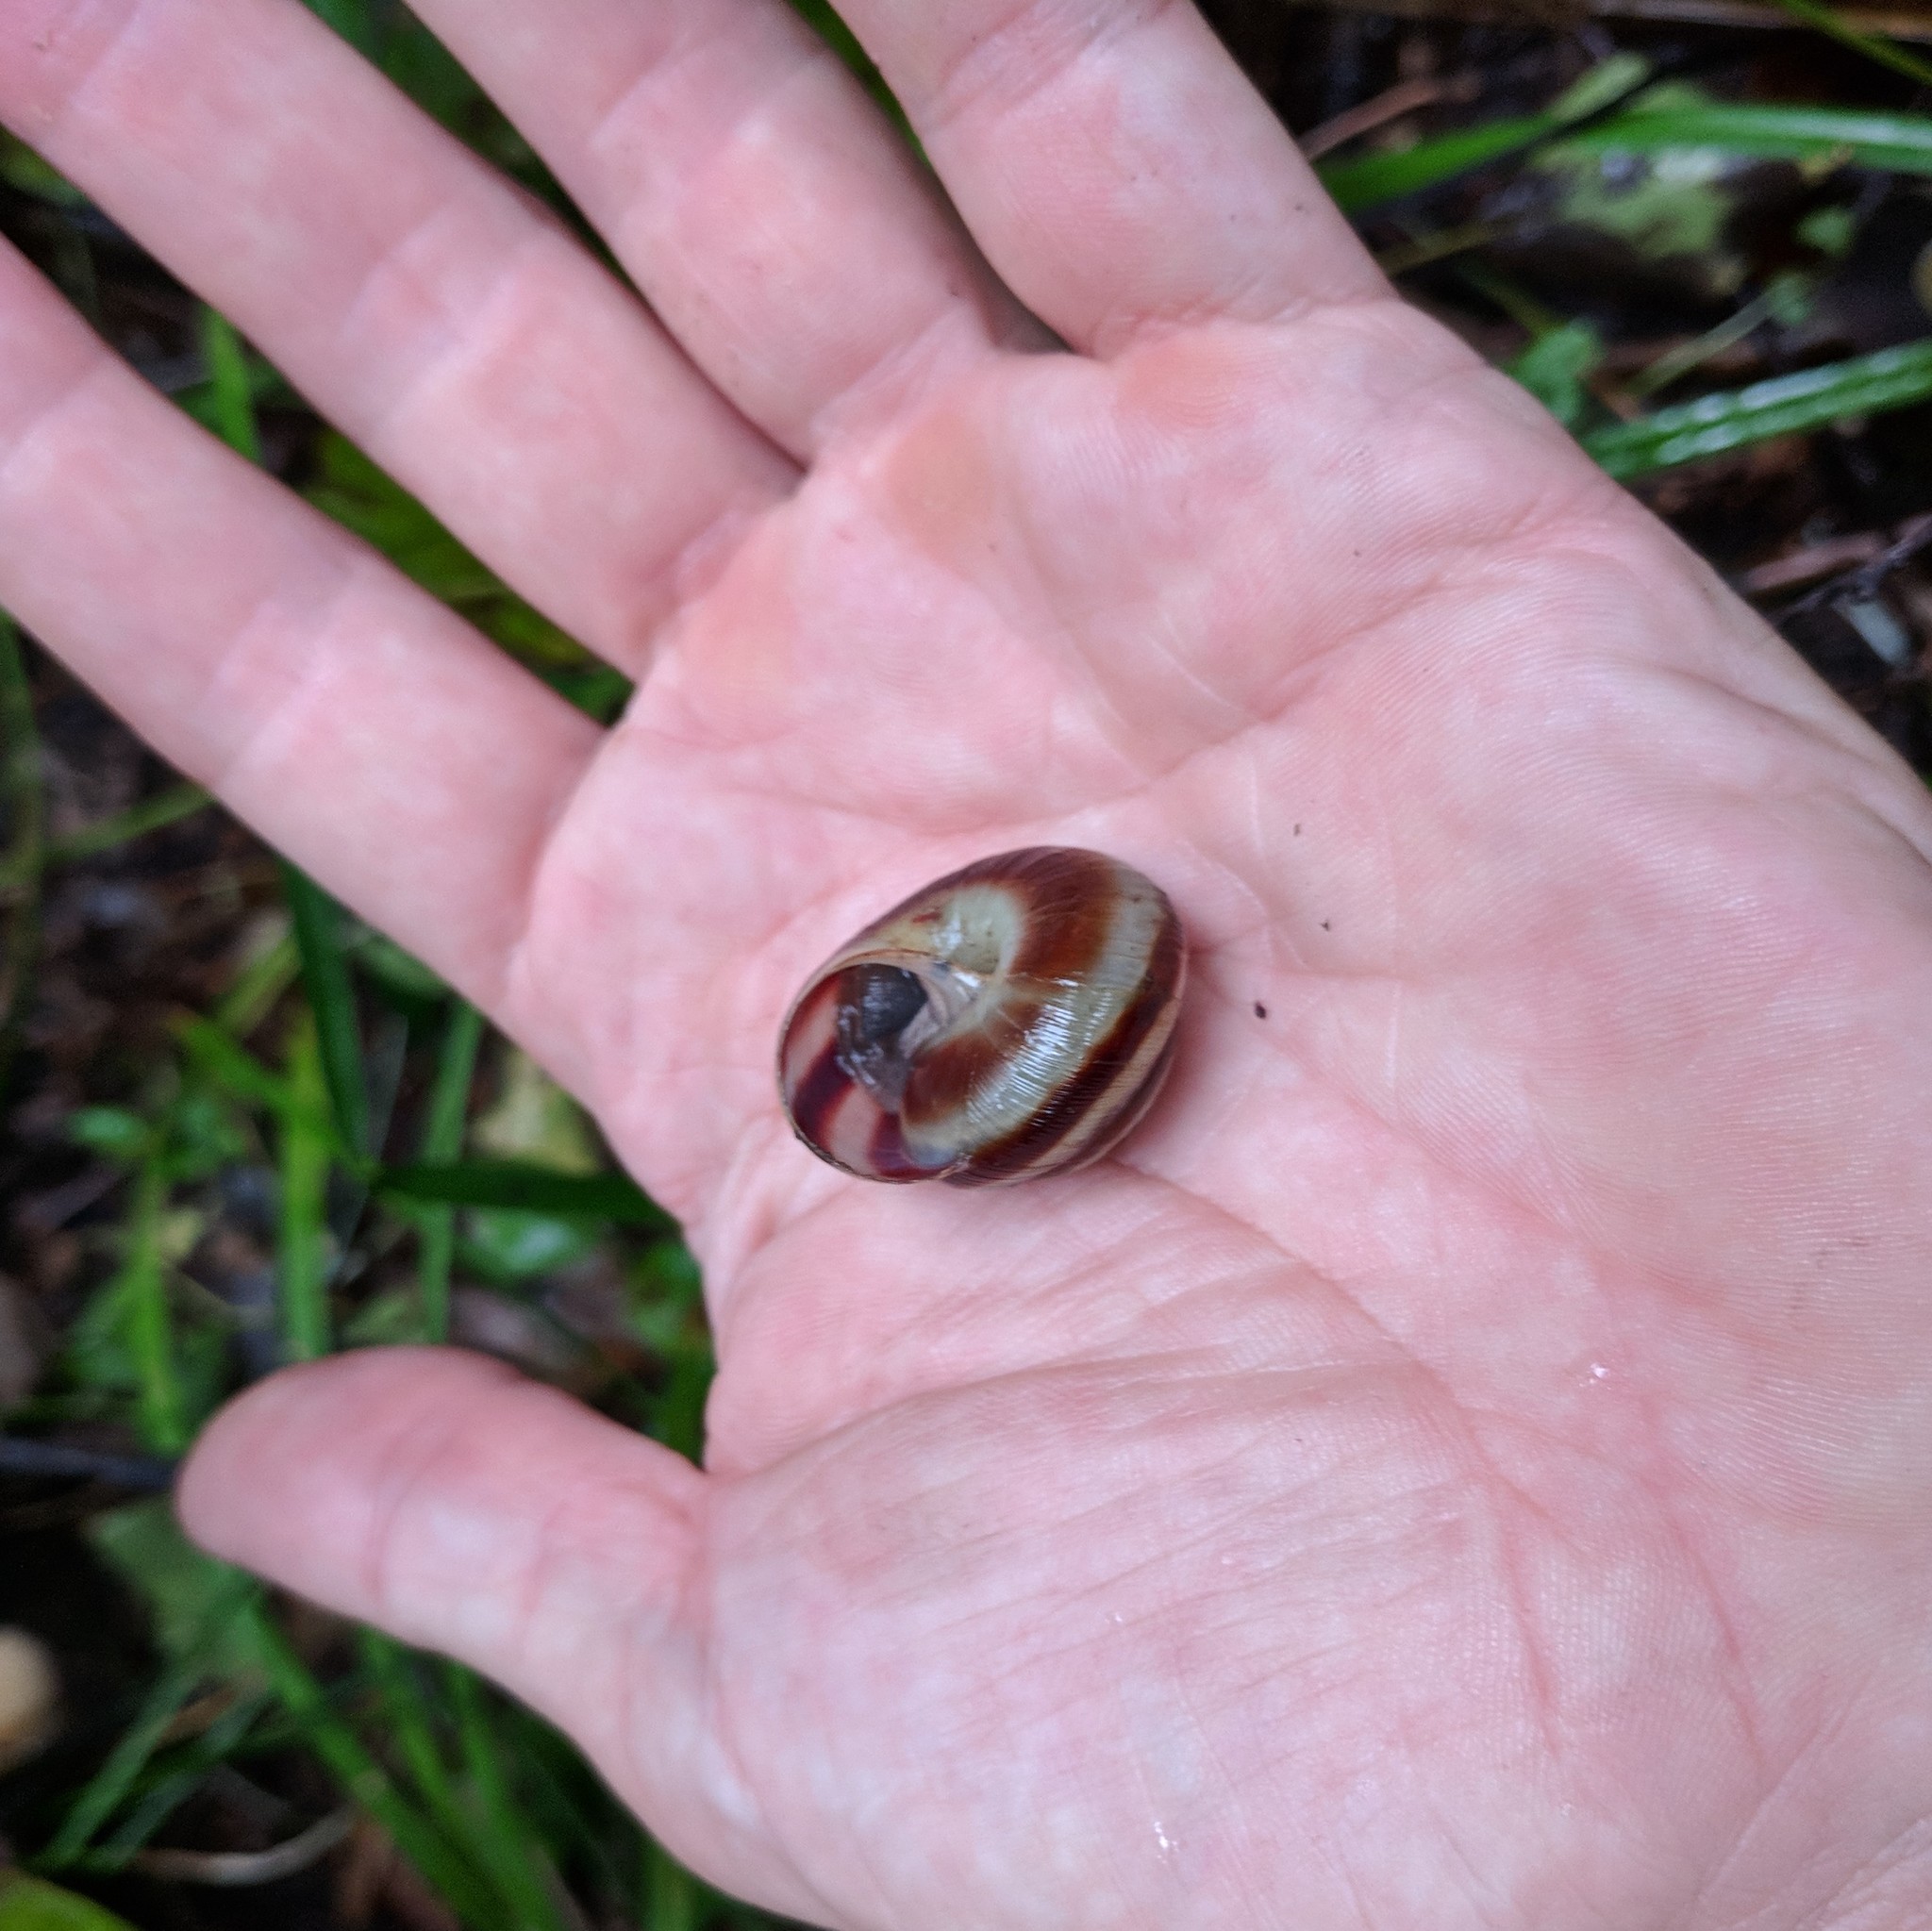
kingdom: Animalia
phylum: Mollusca
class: Gastropoda
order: Stylommatophora
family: Camaenidae
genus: Karaftohelix
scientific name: Karaftohelix maackii
